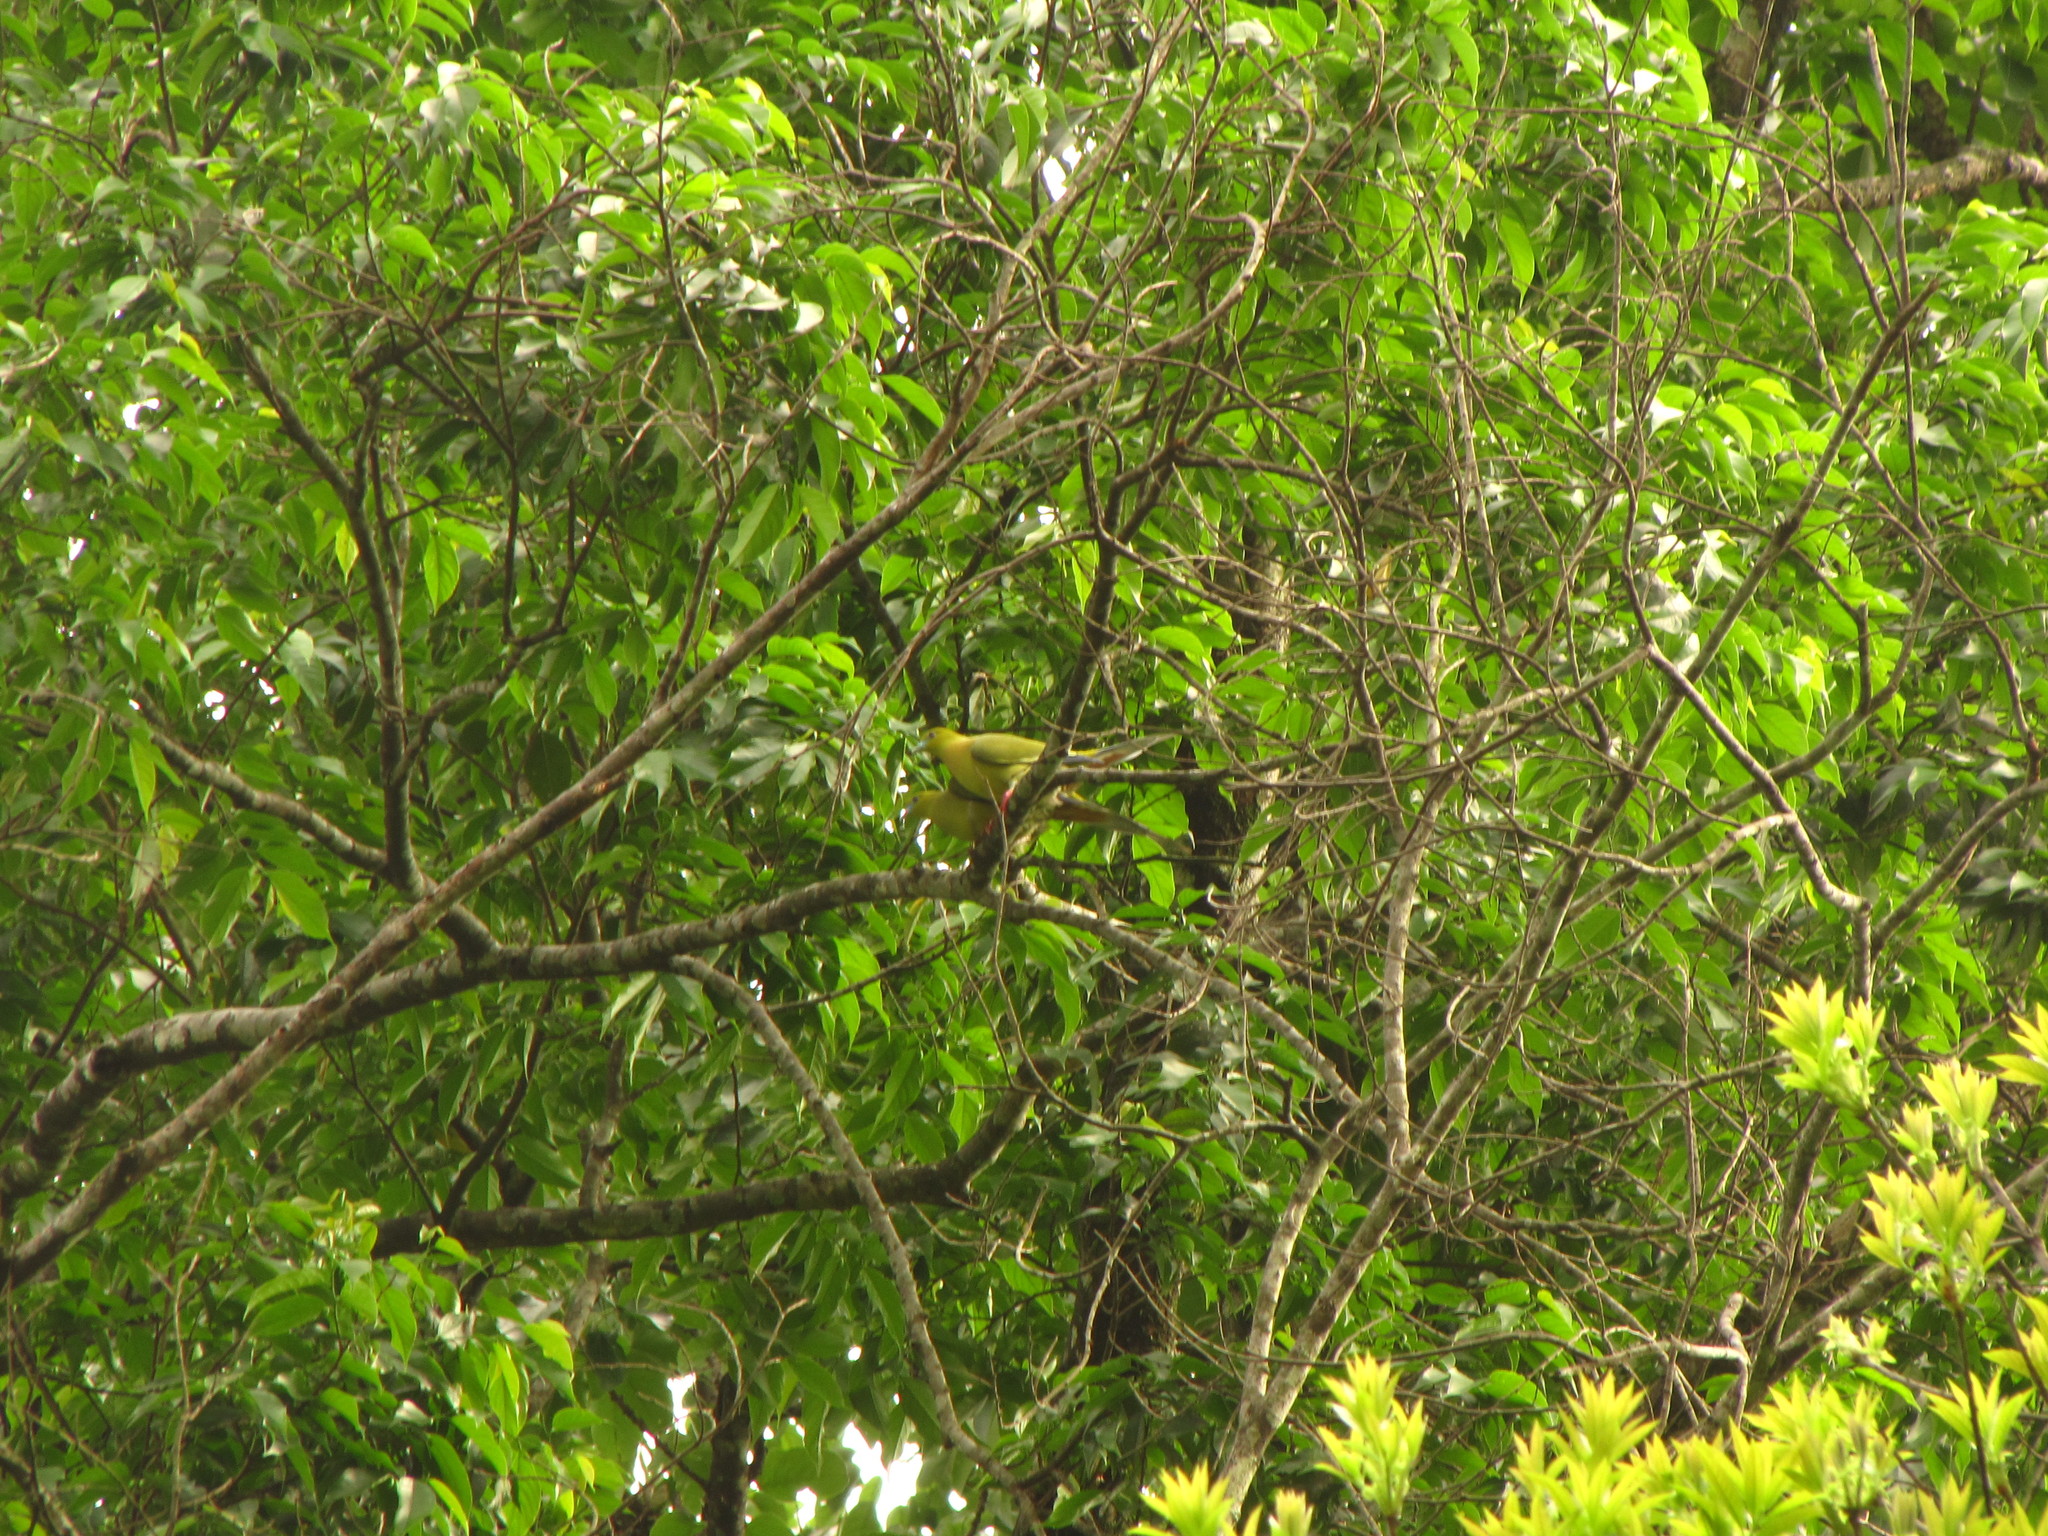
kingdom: Animalia
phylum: Chordata
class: Aves
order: Columbiformes
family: Columbidae
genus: Treron
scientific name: Treron apicauda
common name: Pin-tailed green pigeon
